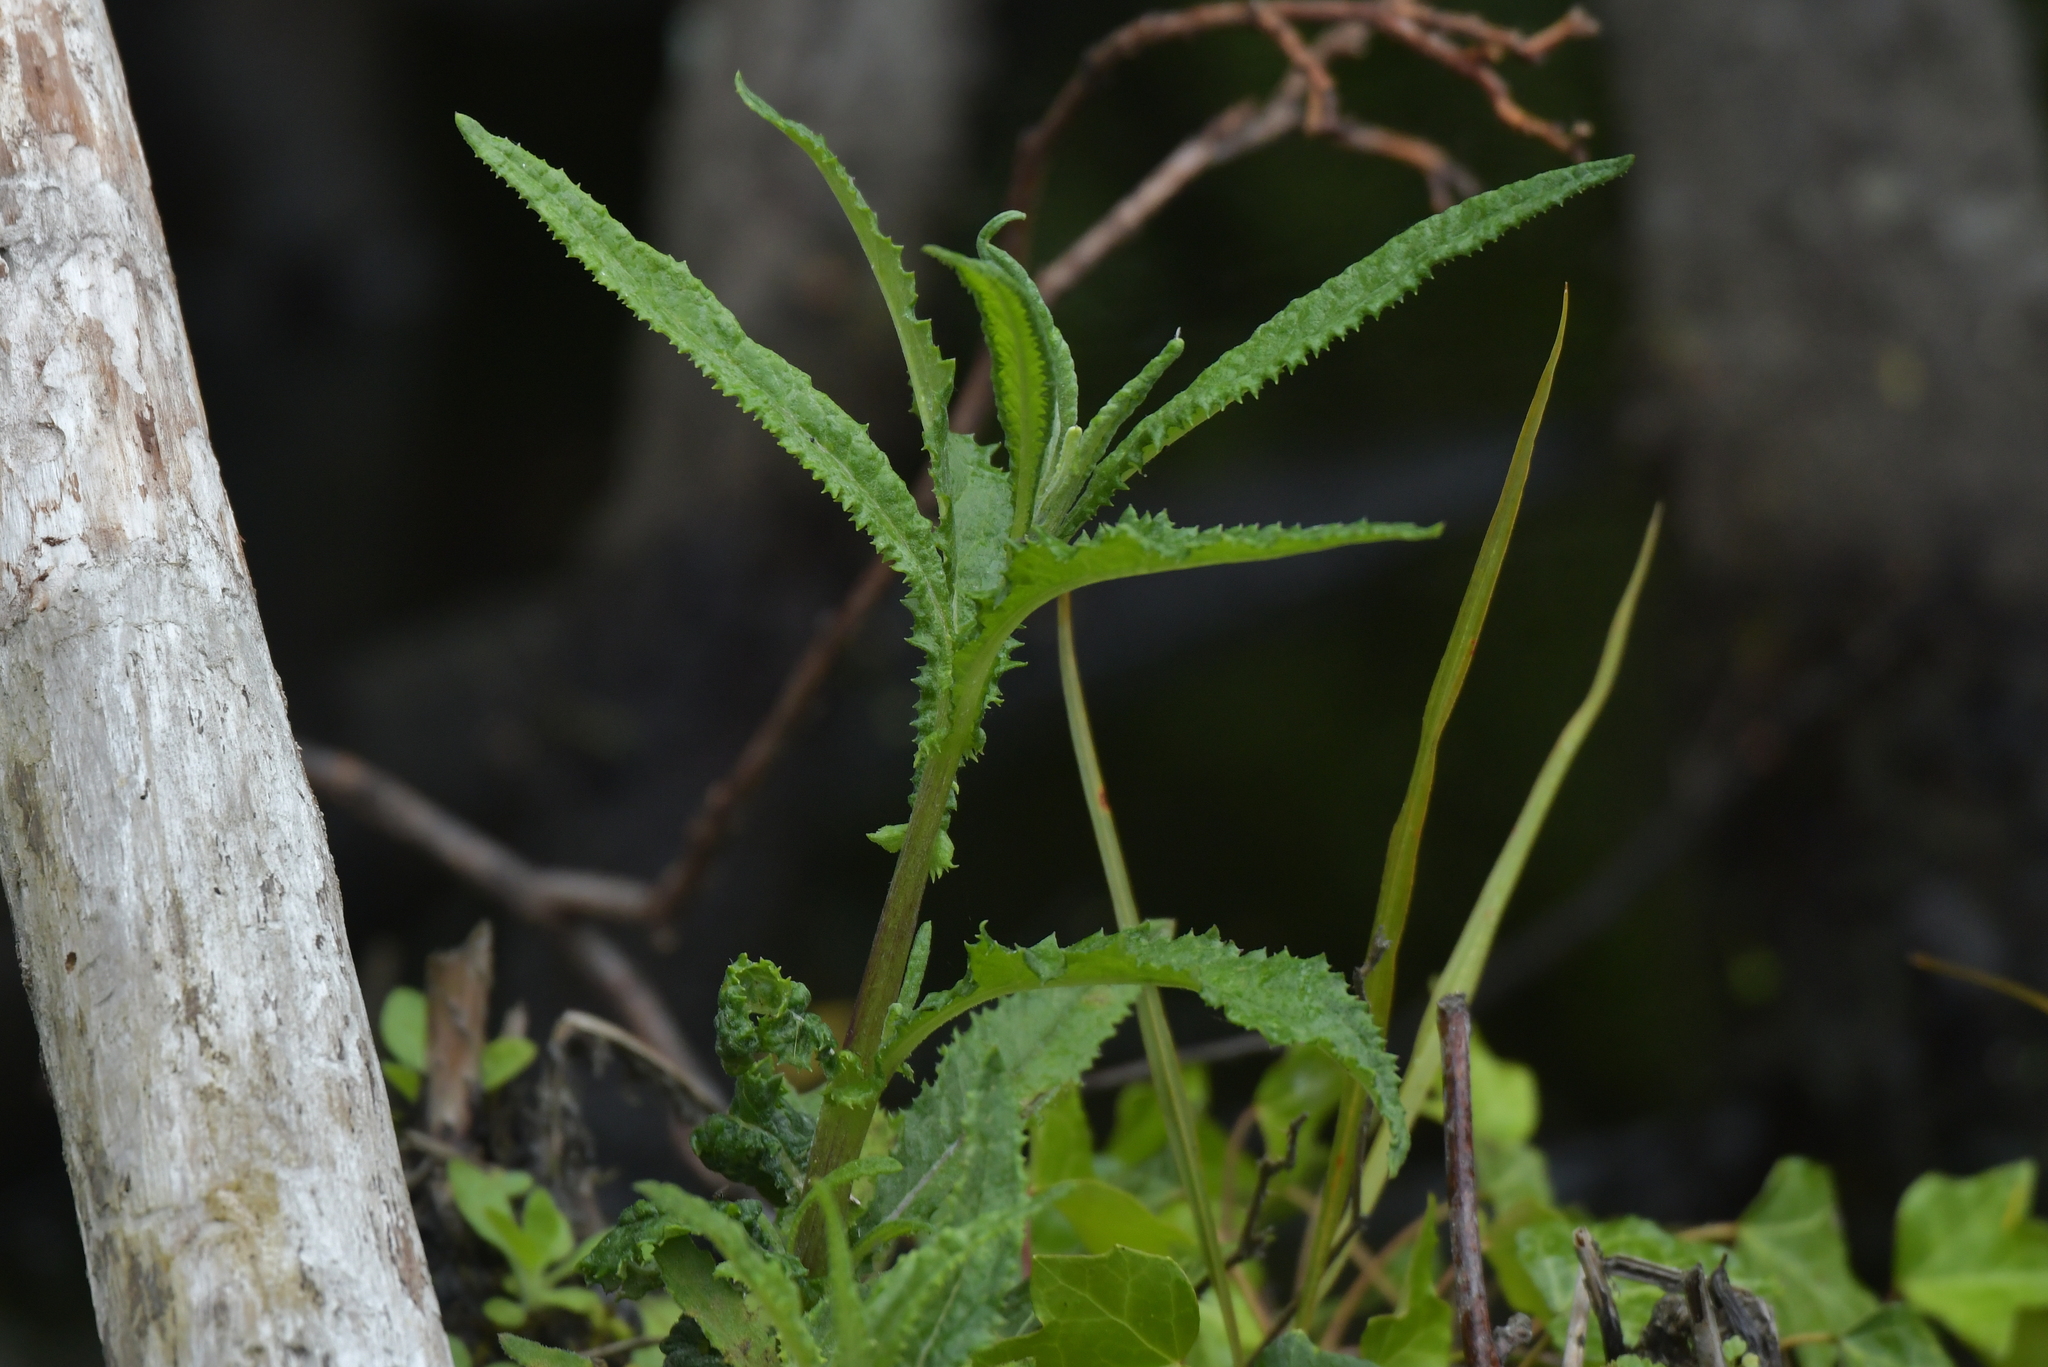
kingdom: Plantae
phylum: Tracheophyta
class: Magnoliopsida
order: Asterales
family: Asteraceae
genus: Senecio
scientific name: Senecio minimus
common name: Toothed fireweed
